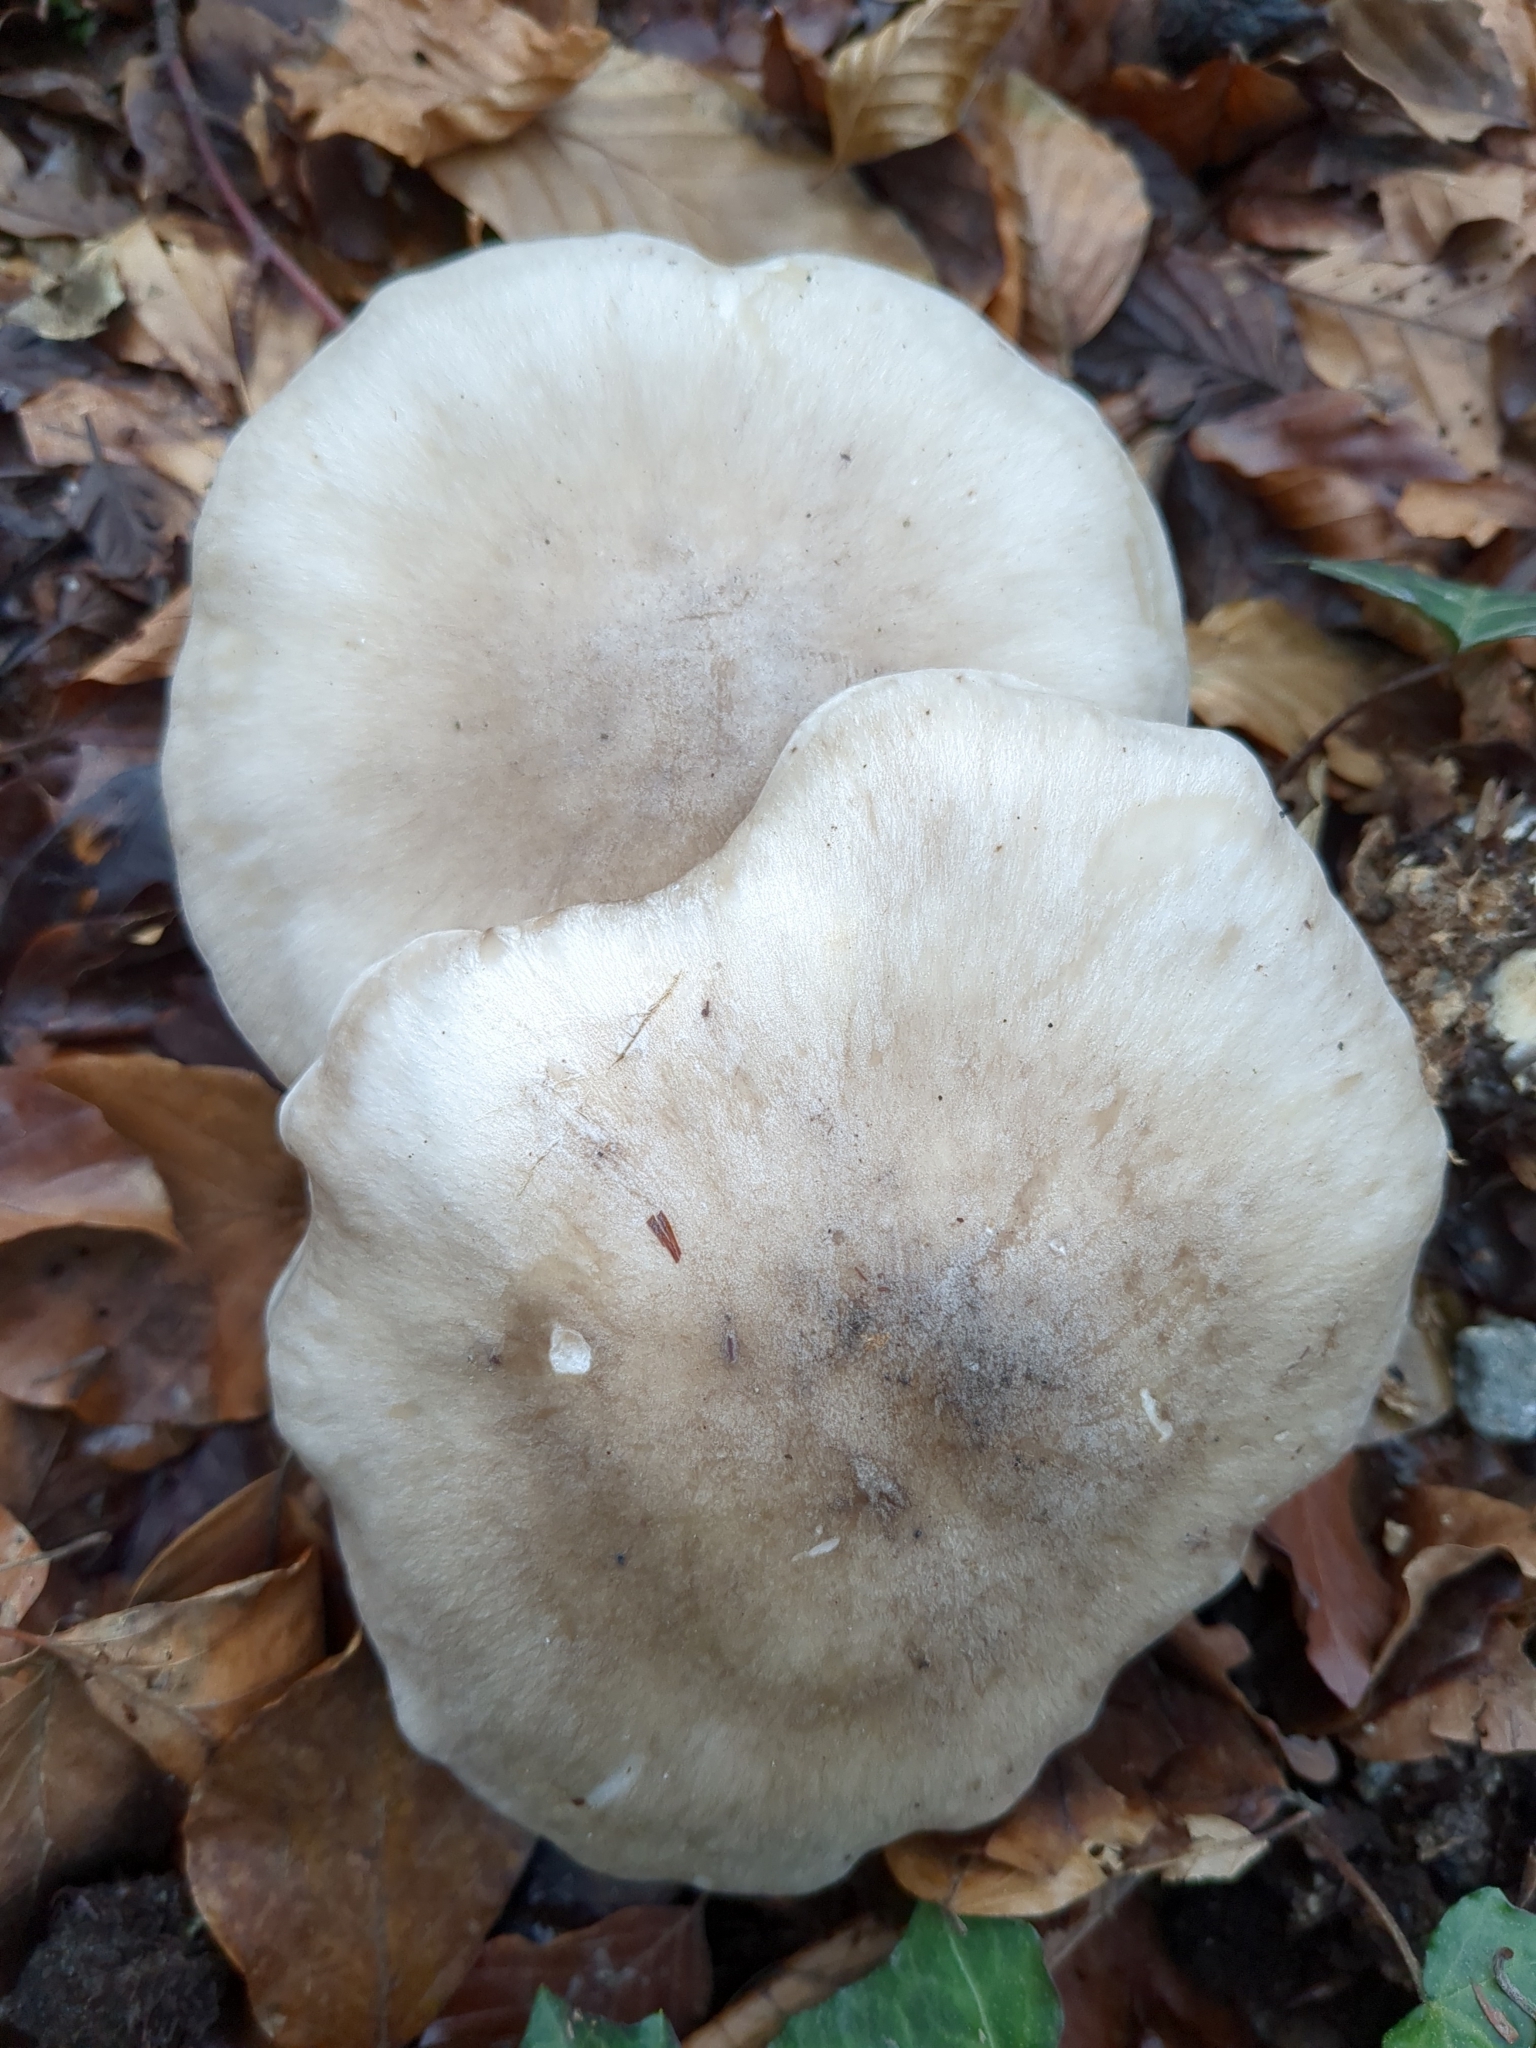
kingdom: Fungi
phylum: Basidiomycota
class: Agaricomycetes
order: Agaricales
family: Tricholomataceae
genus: Clitocybe
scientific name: Clitocybe nebularis
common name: Clouded agaric
